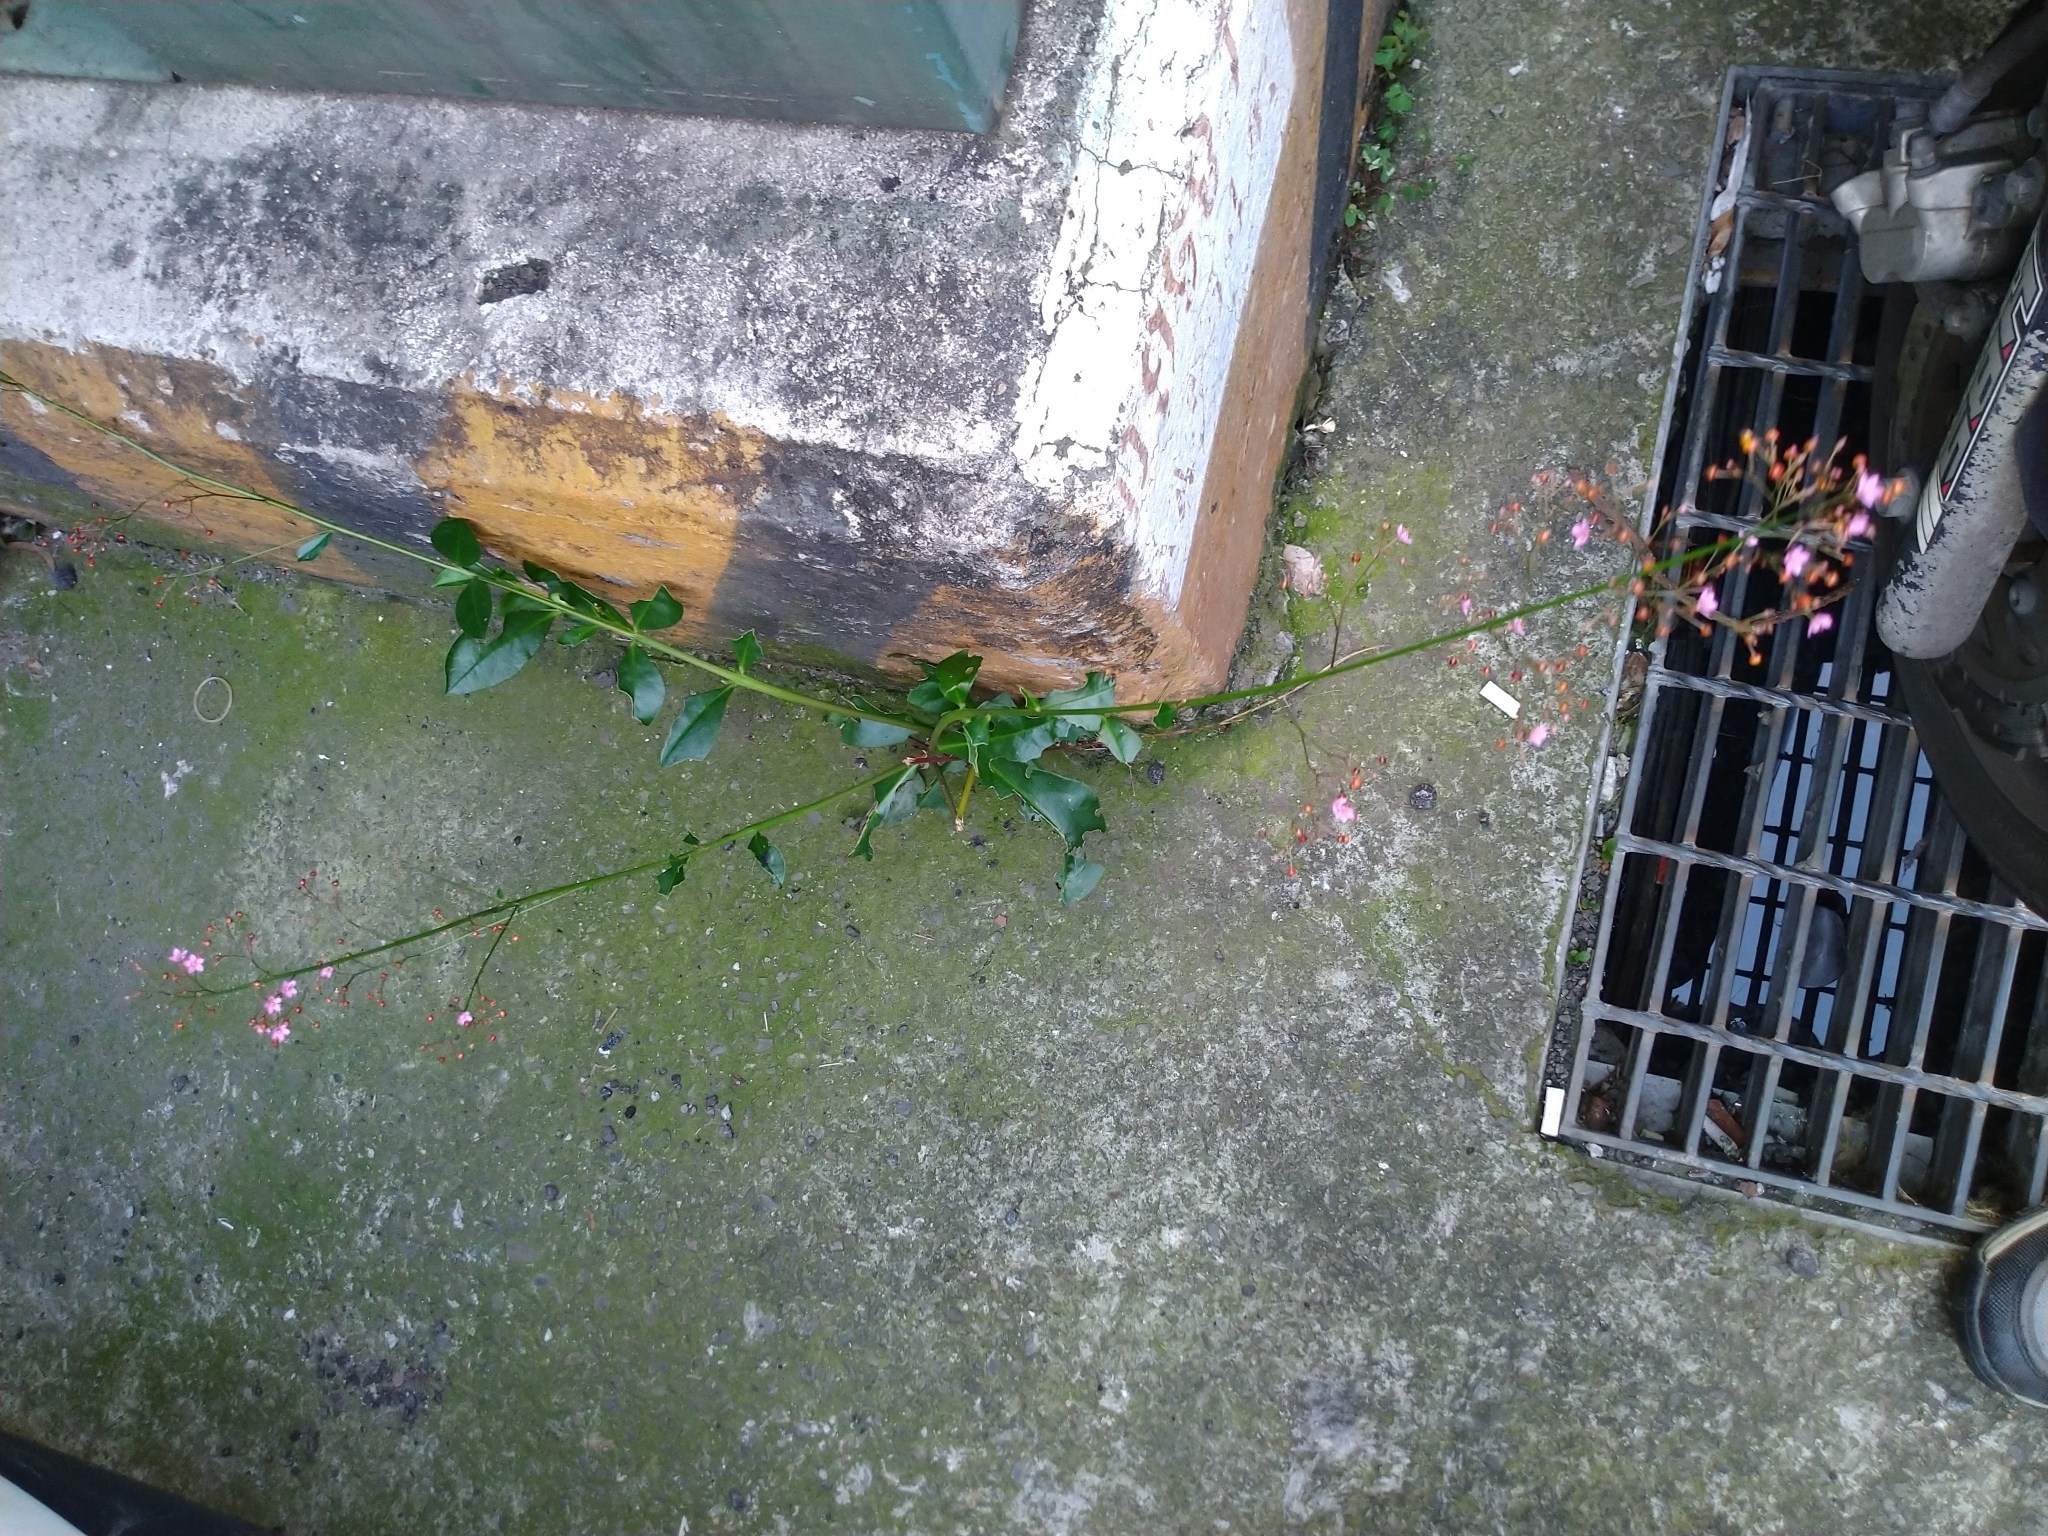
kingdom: Plantae
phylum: Tracheophyta
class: Magnoliopsida
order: Caryophyllales
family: Talinaceae
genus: Talinum
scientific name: Talinum paniculatum
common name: Jewels of opar
